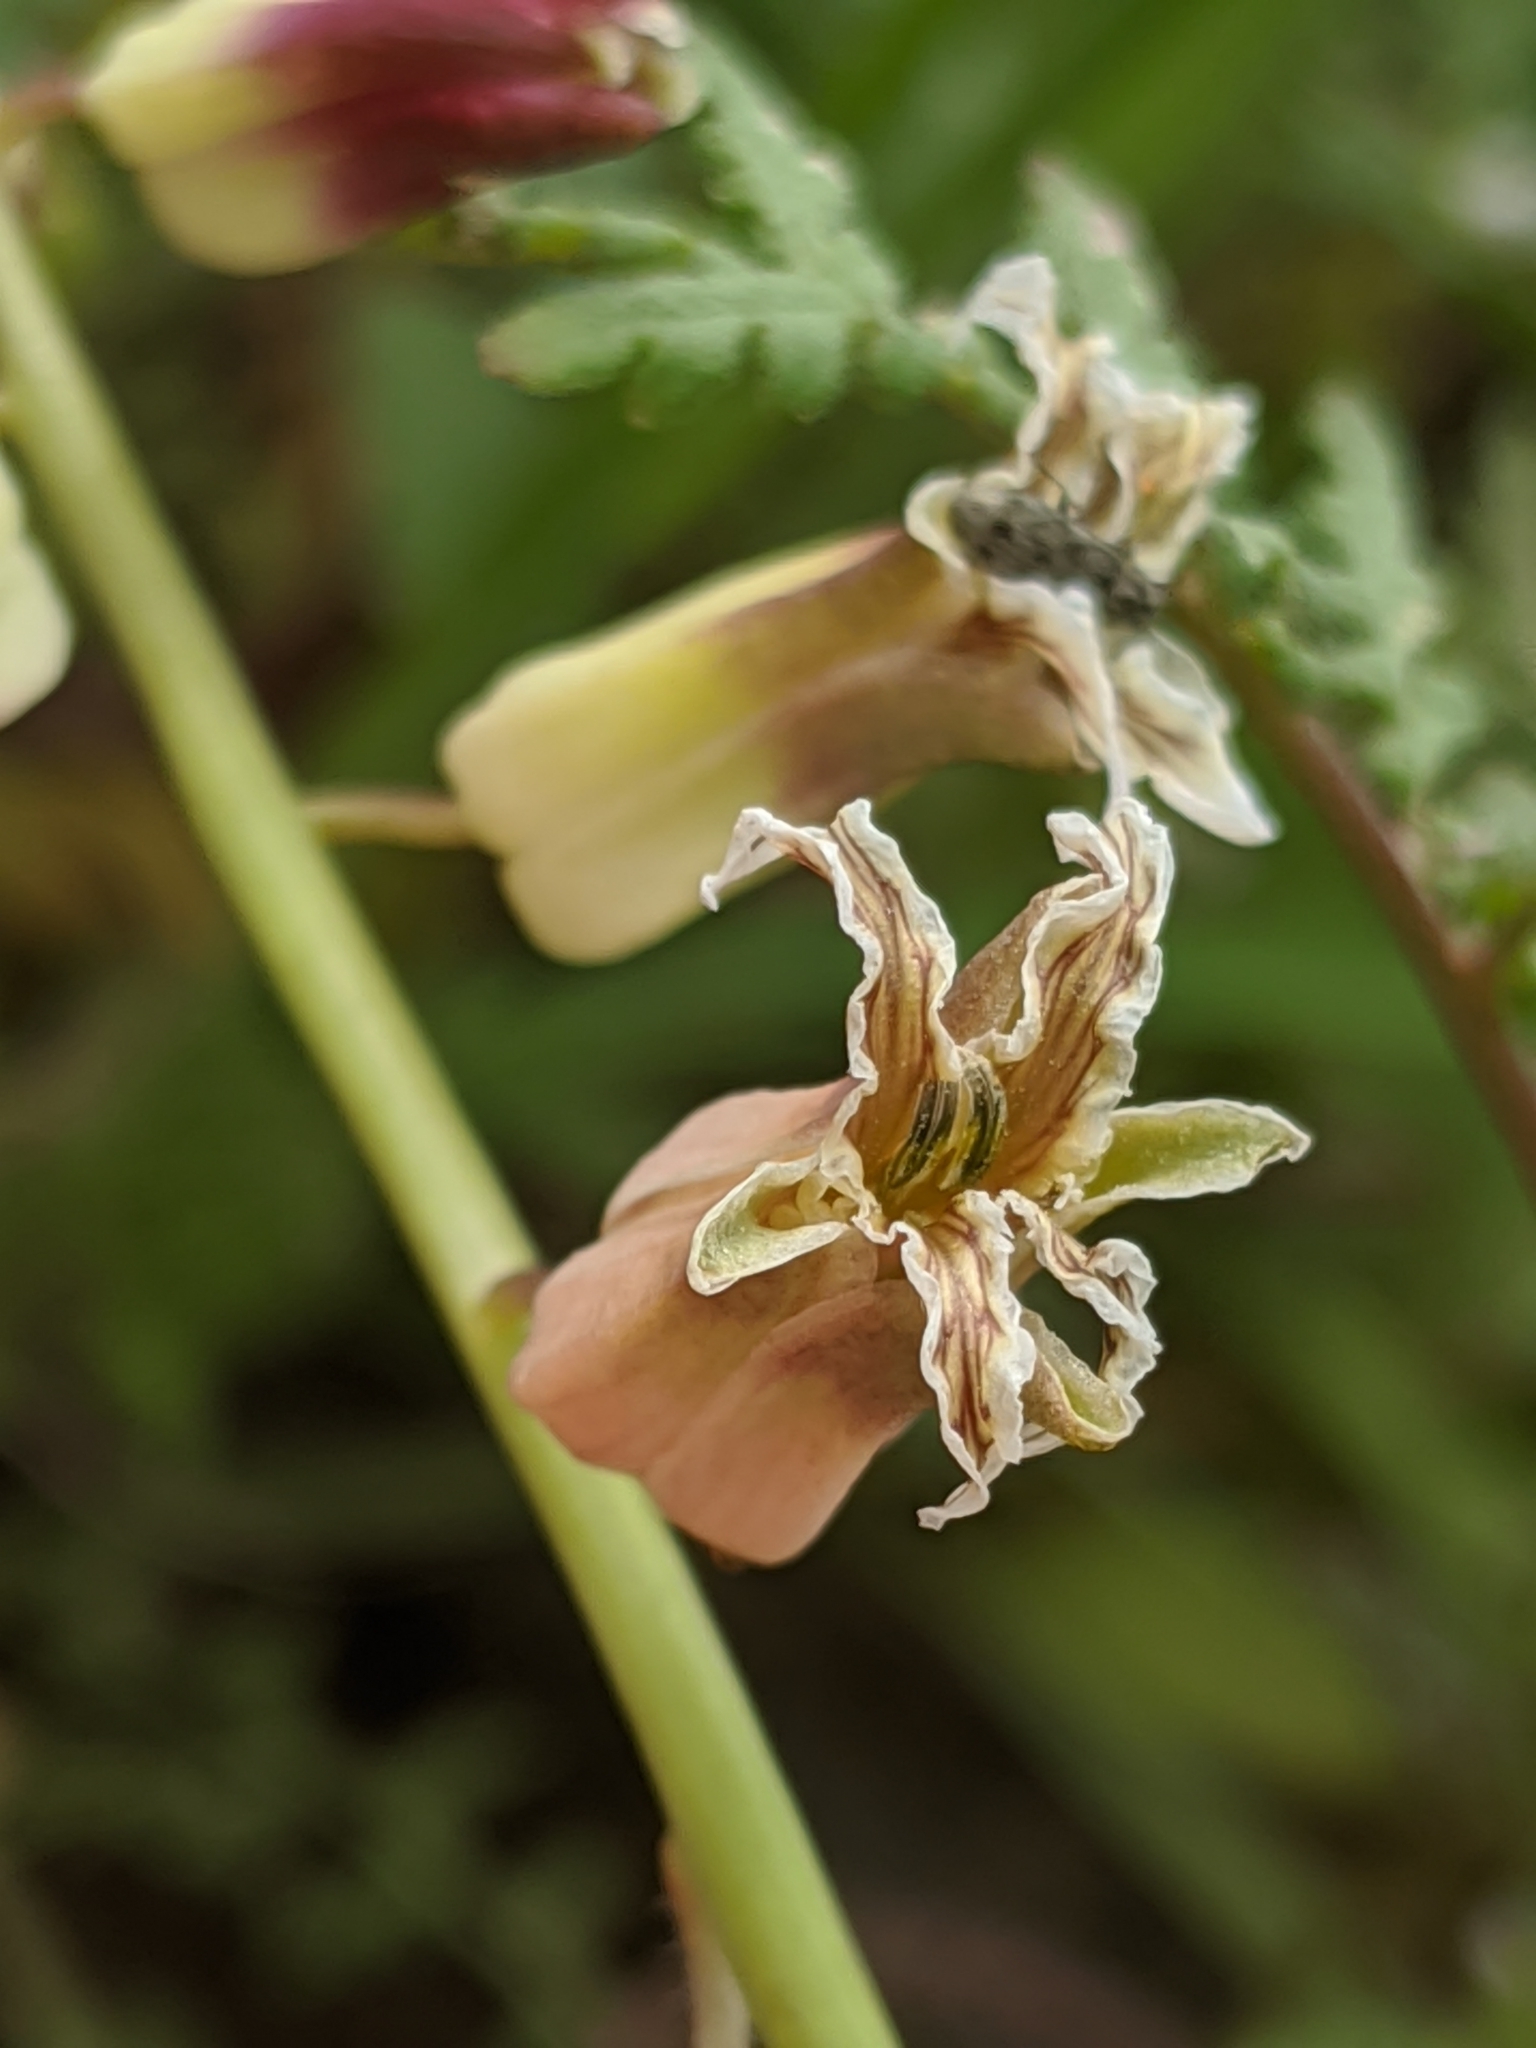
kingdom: Plantae
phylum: Tracheophyta
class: Magnoliopsida
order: Brassicales
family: Brassicaceae
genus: Streptanthus
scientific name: Streptanthus lemmonii
